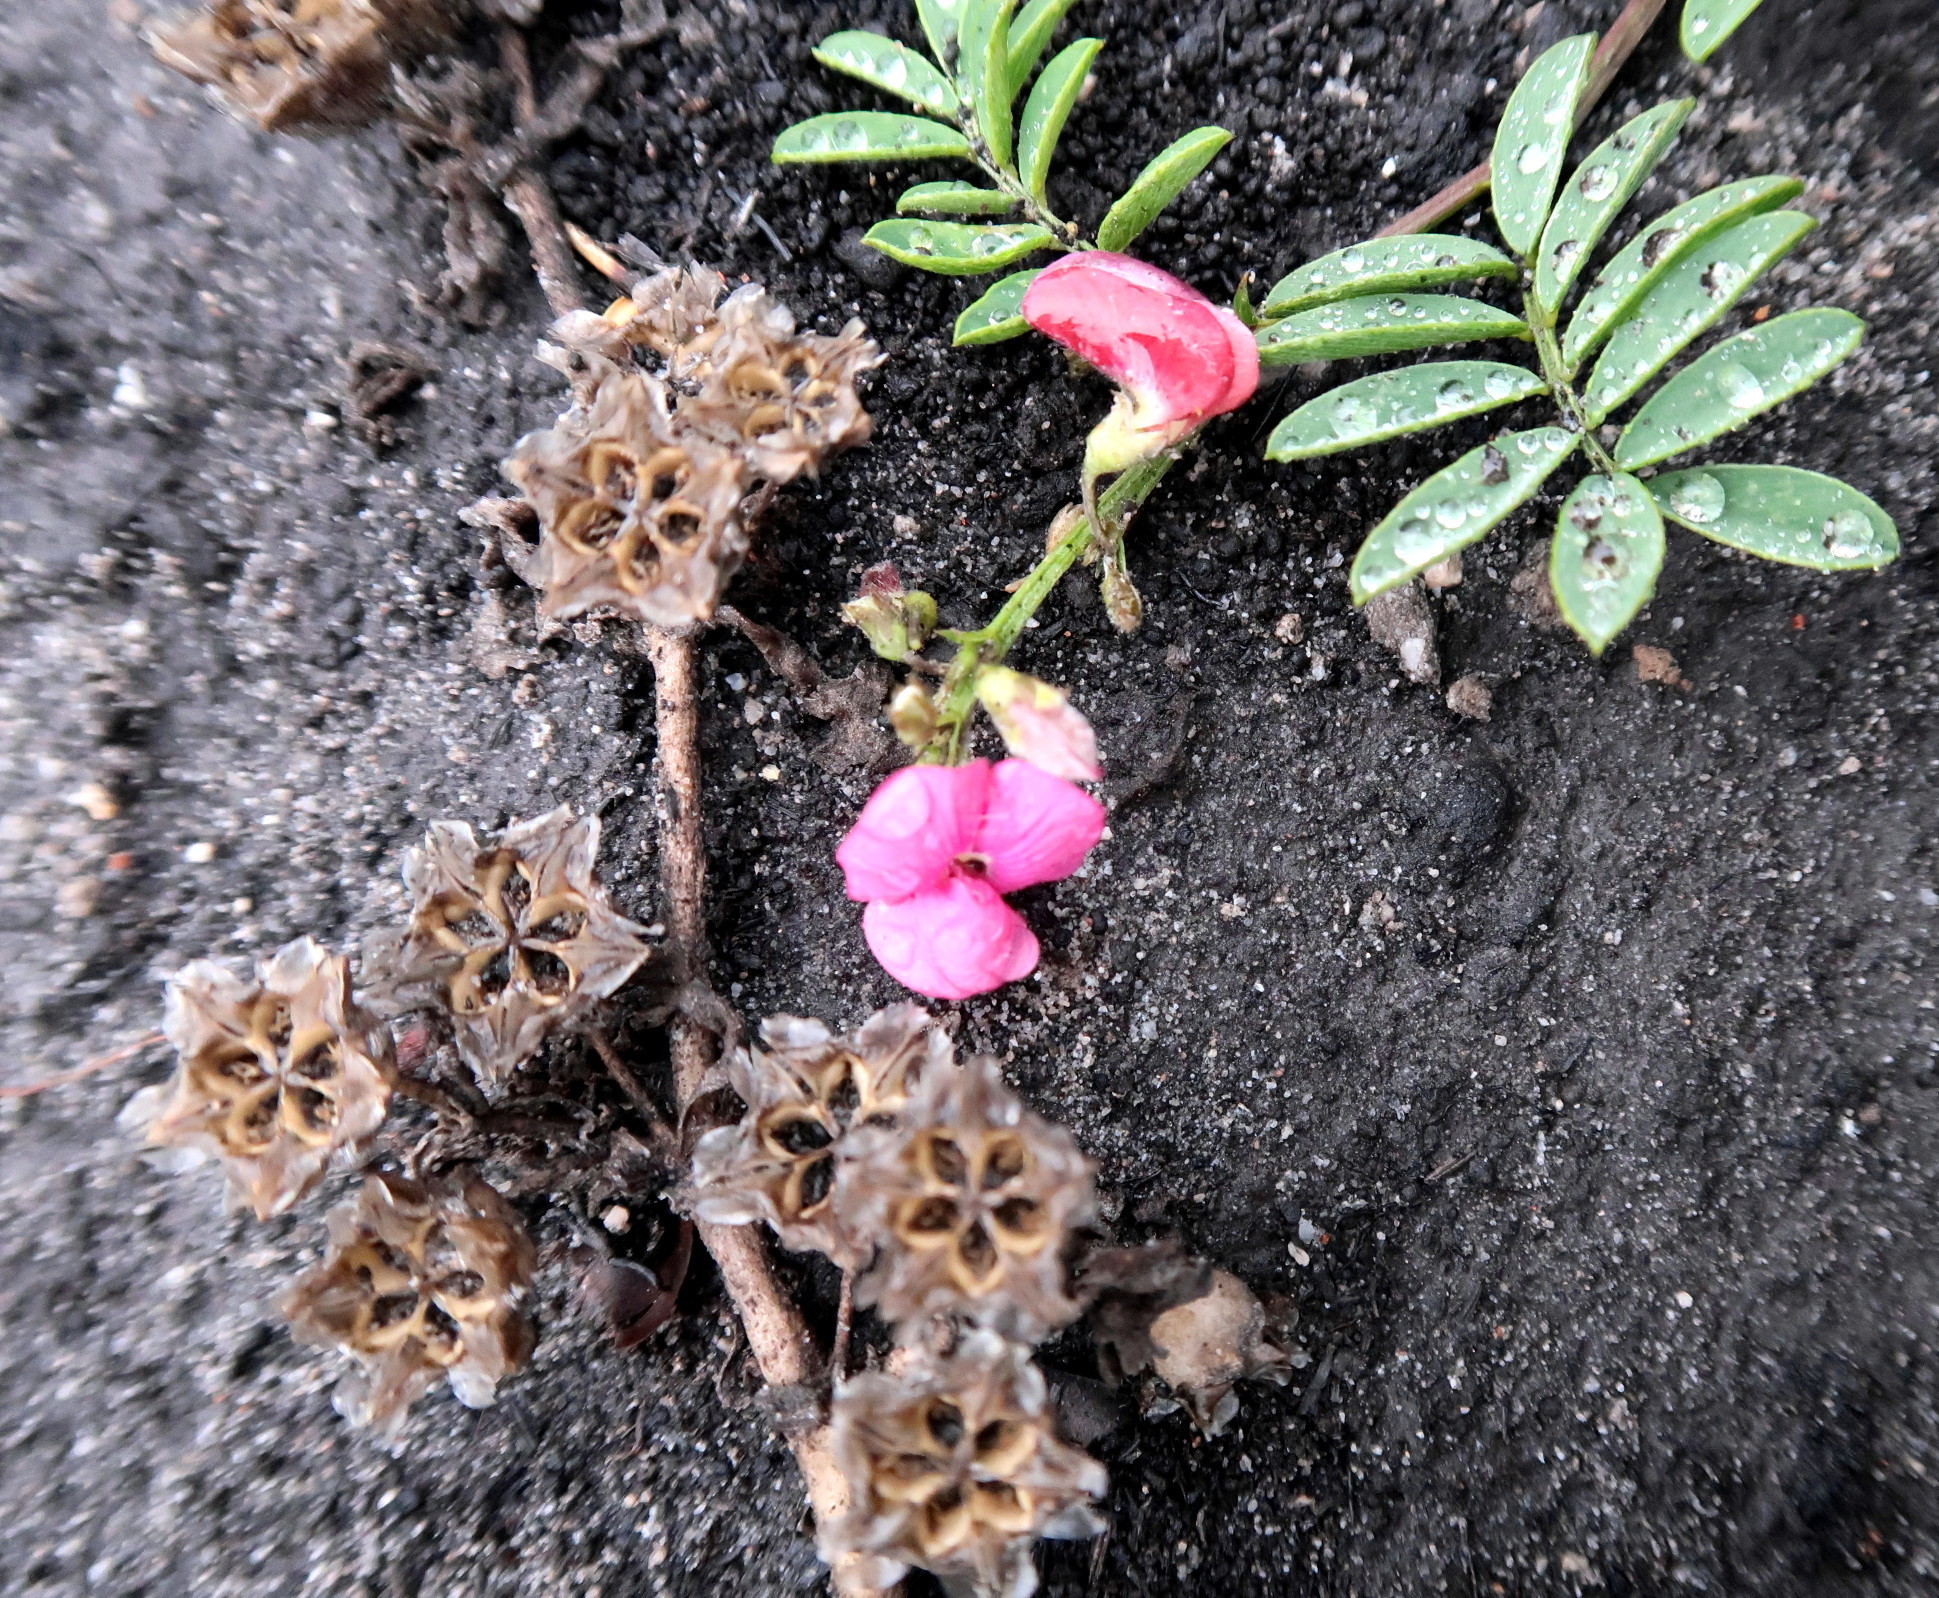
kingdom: Plantae
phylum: Tracheophyta
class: Magnoliopsida
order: Fabales
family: Fabaceae
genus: Tephrosia
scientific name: Tephrosia capensis
